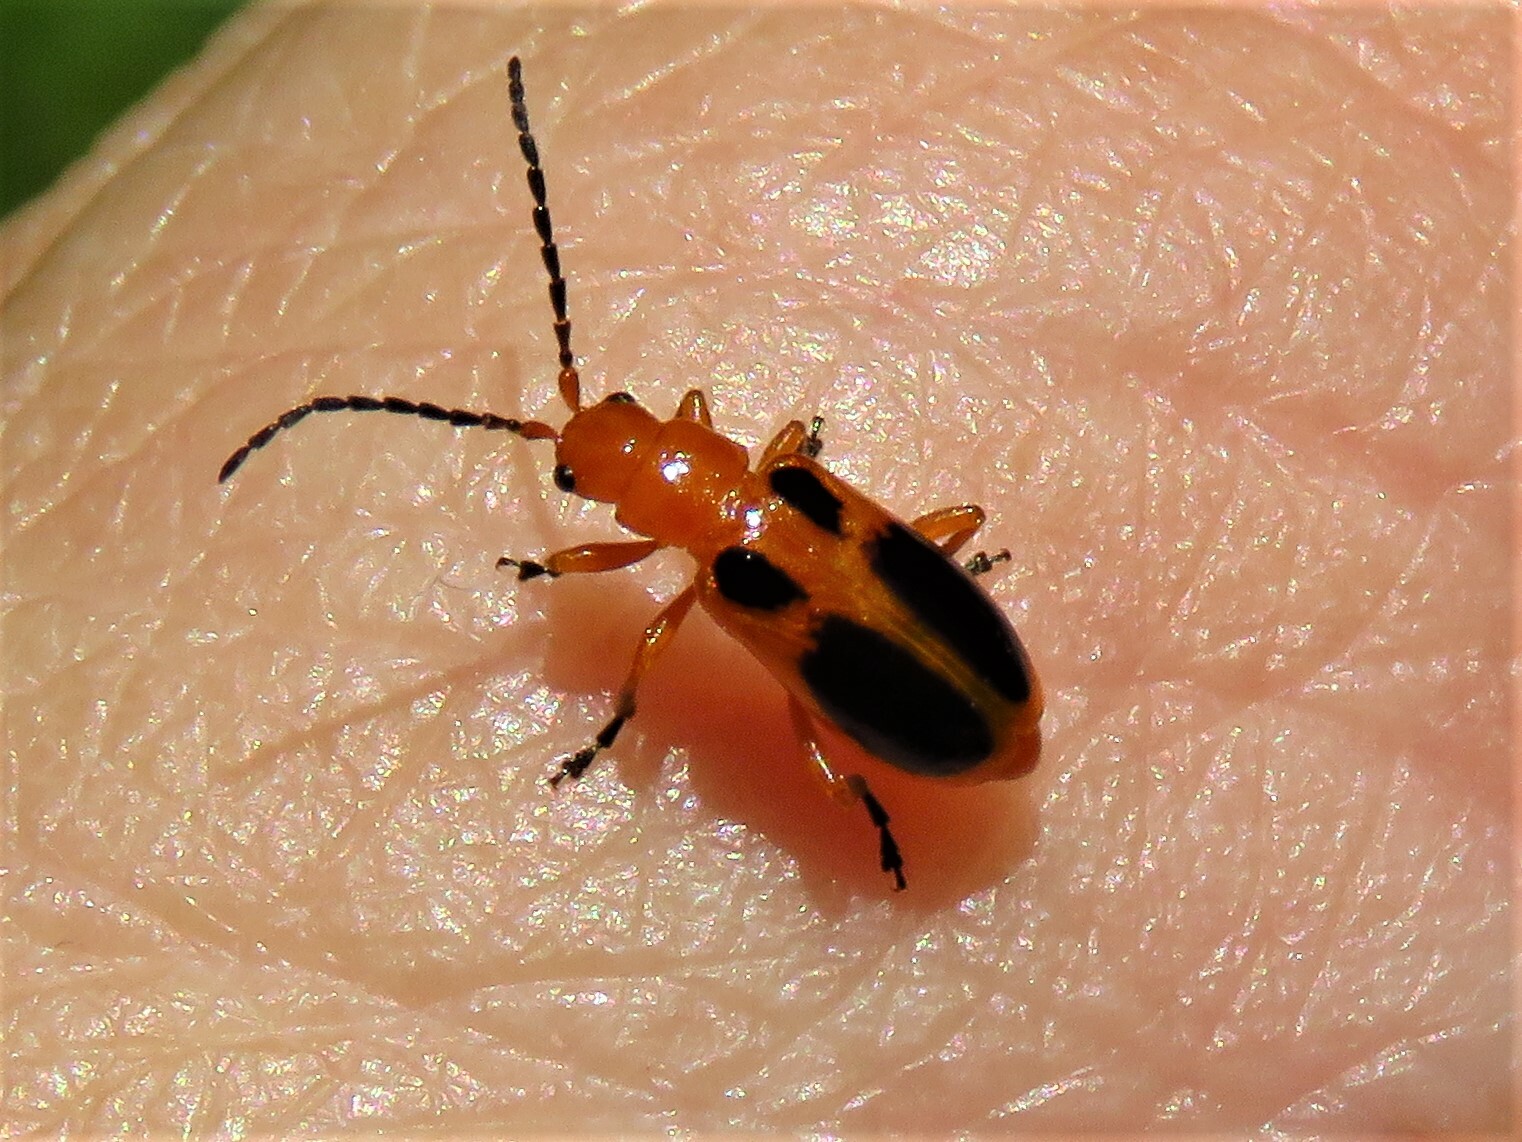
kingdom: Animalia
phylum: Arthropoda
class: Insecta
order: Coleoptera
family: Chrysomelidae
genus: Phyllobrotica
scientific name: Phyllobrotica sororia
